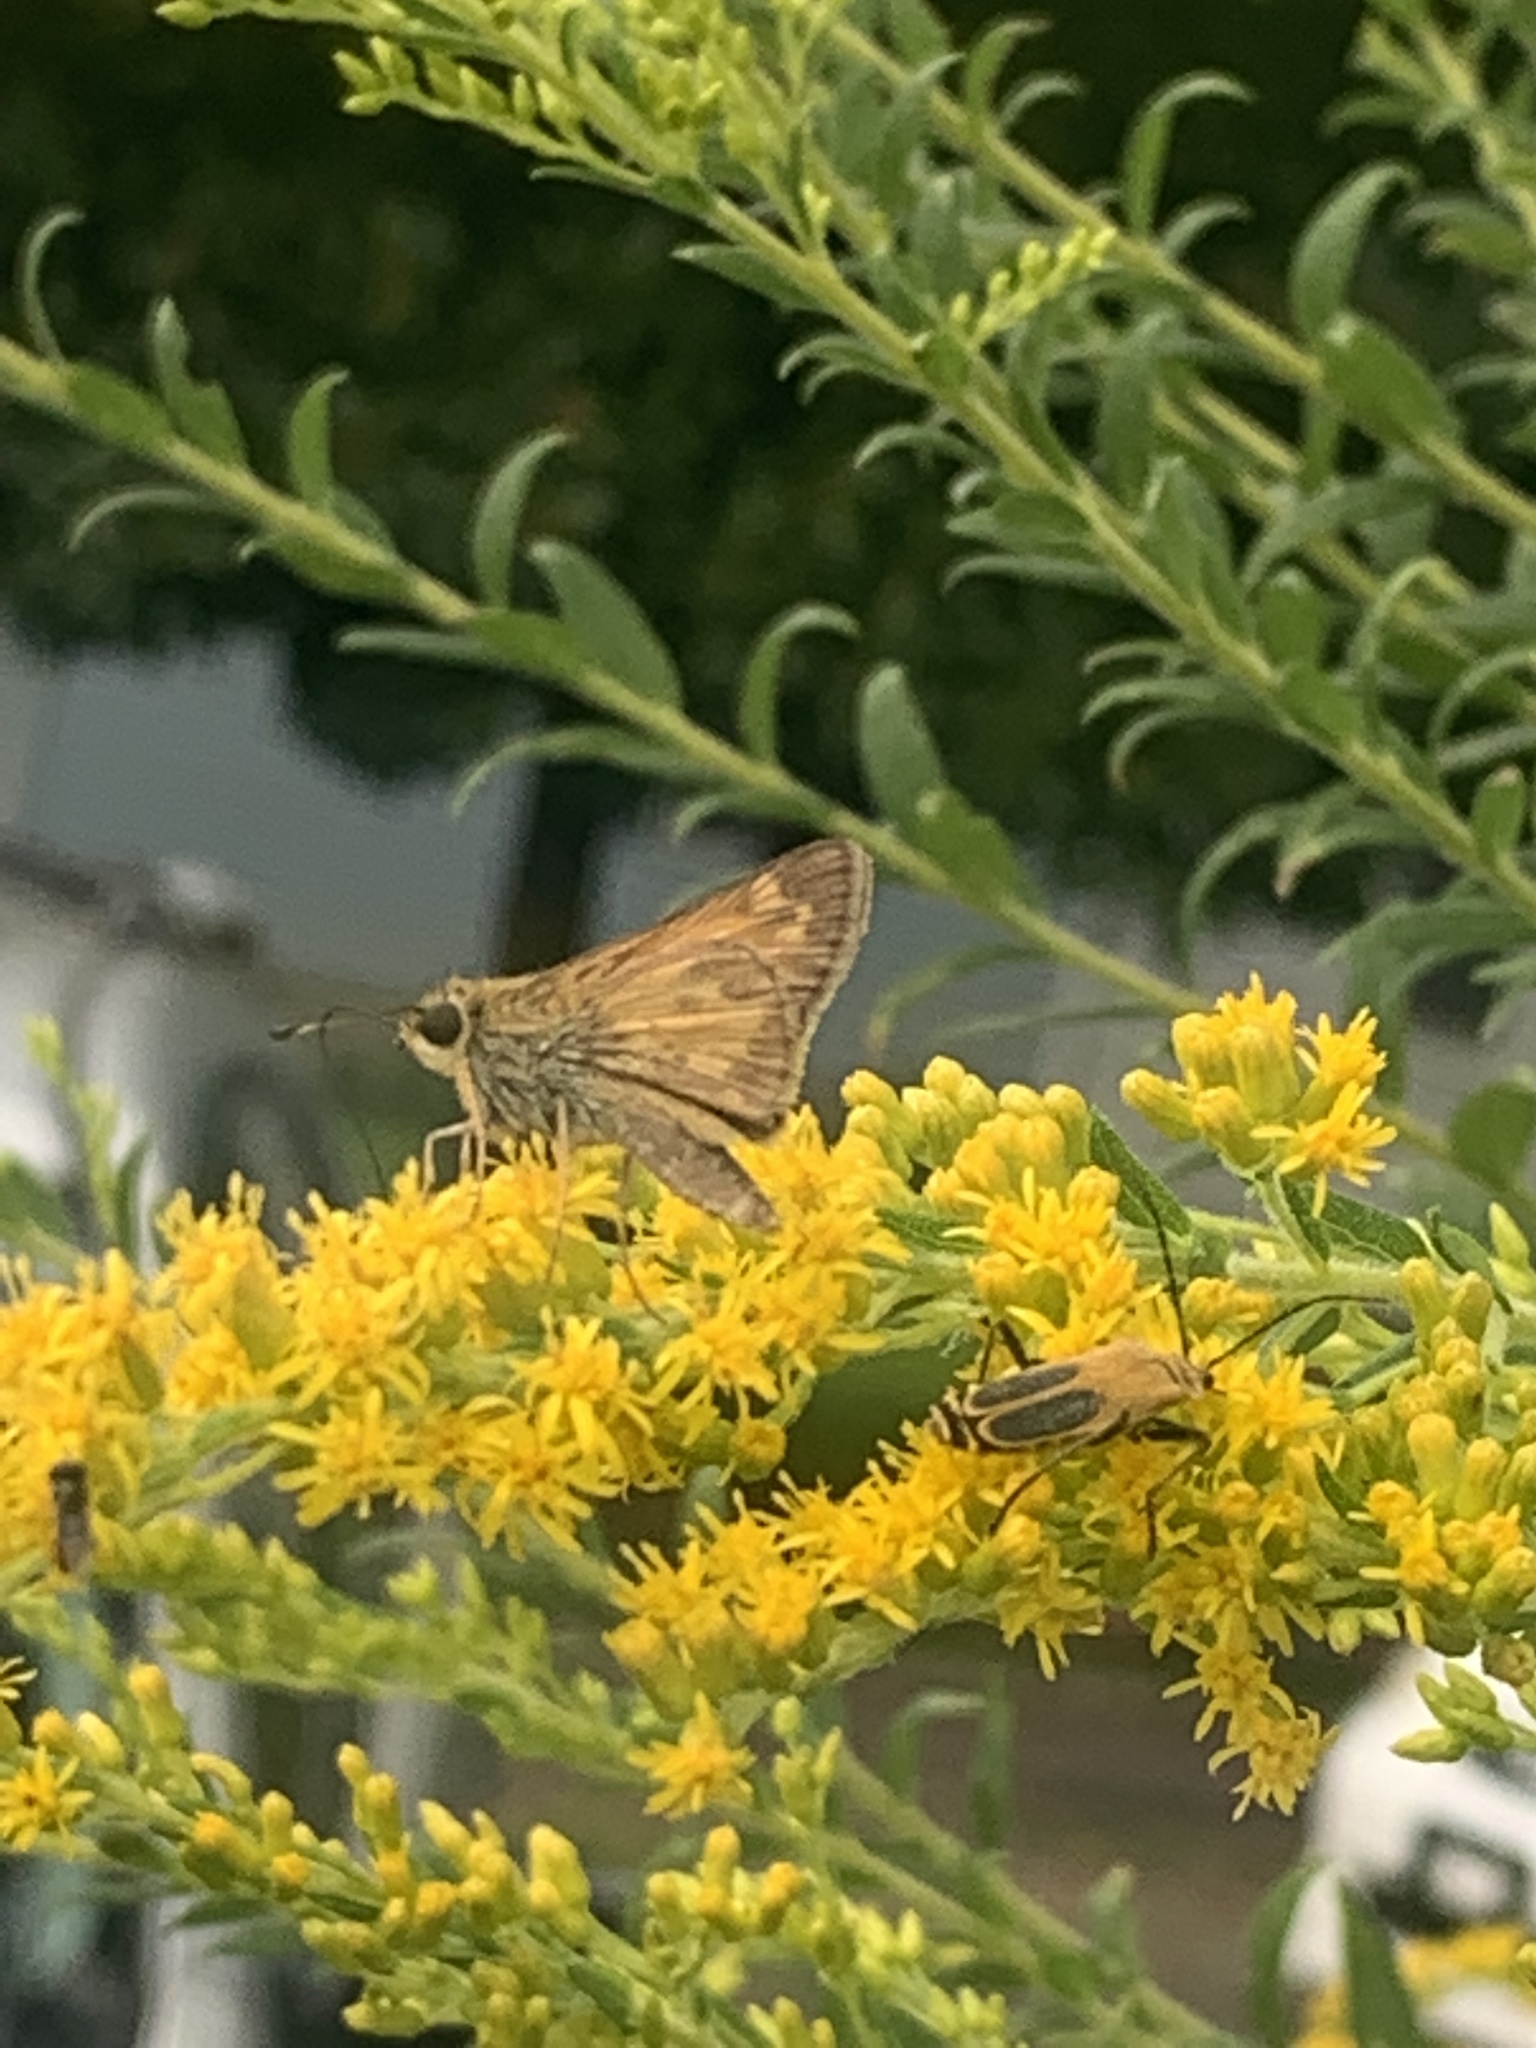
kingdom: Animalia
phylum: Arthropoda
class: Insecta
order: Lepidoptera
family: Hesperiidae
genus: Atalopedes
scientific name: Atalopedes
